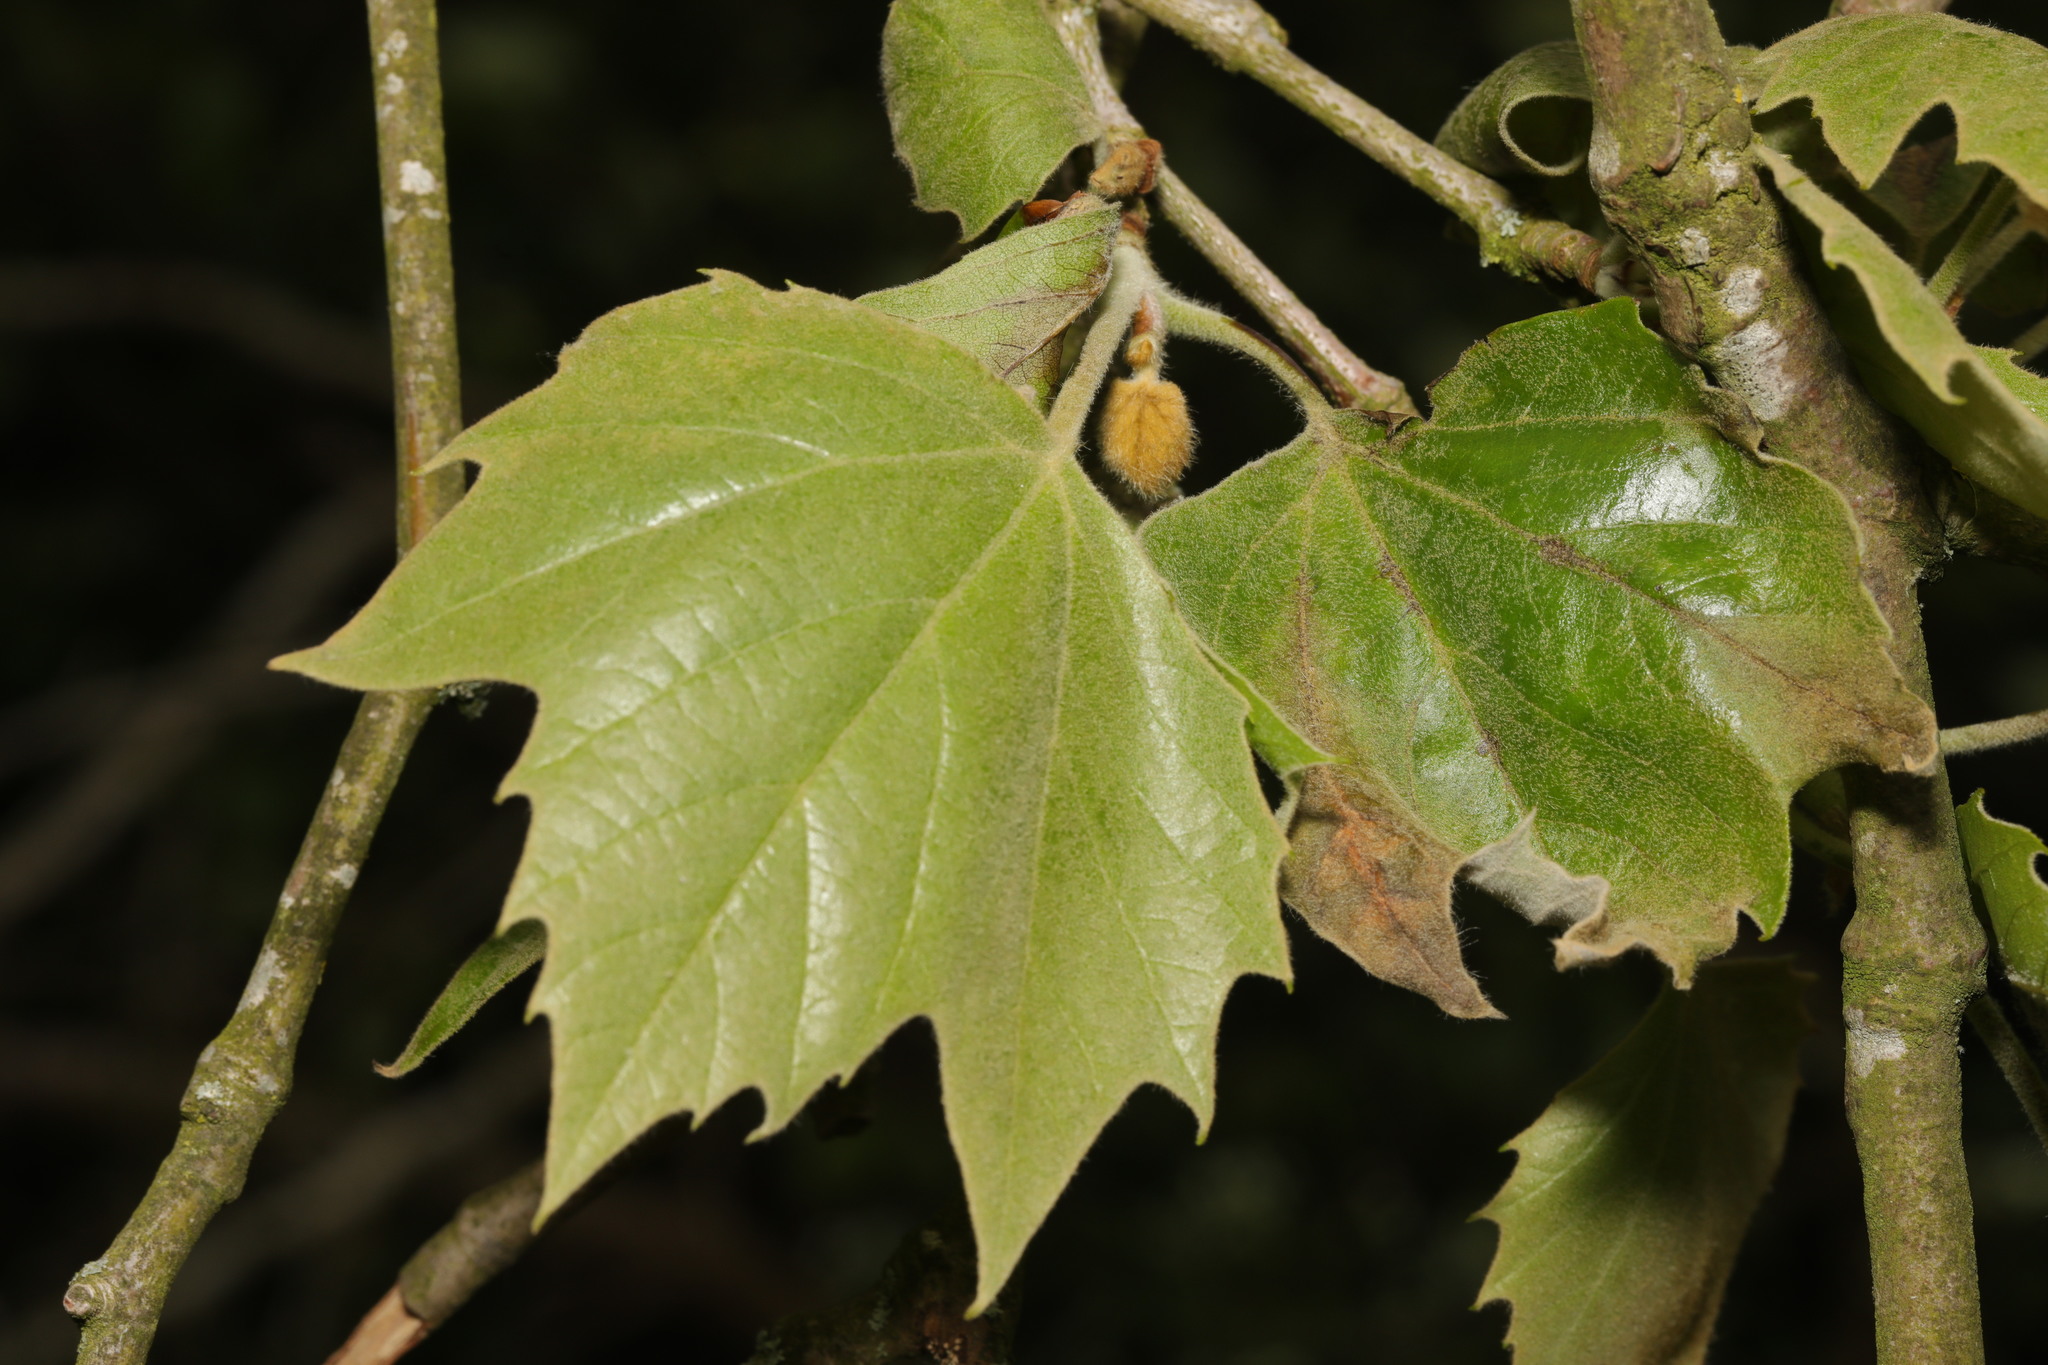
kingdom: Plantae
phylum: Tracheophyta
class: Magnoliopsida
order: Proteales
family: Platanaceae
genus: Platanus
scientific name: Platanus hispanica
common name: London plane
